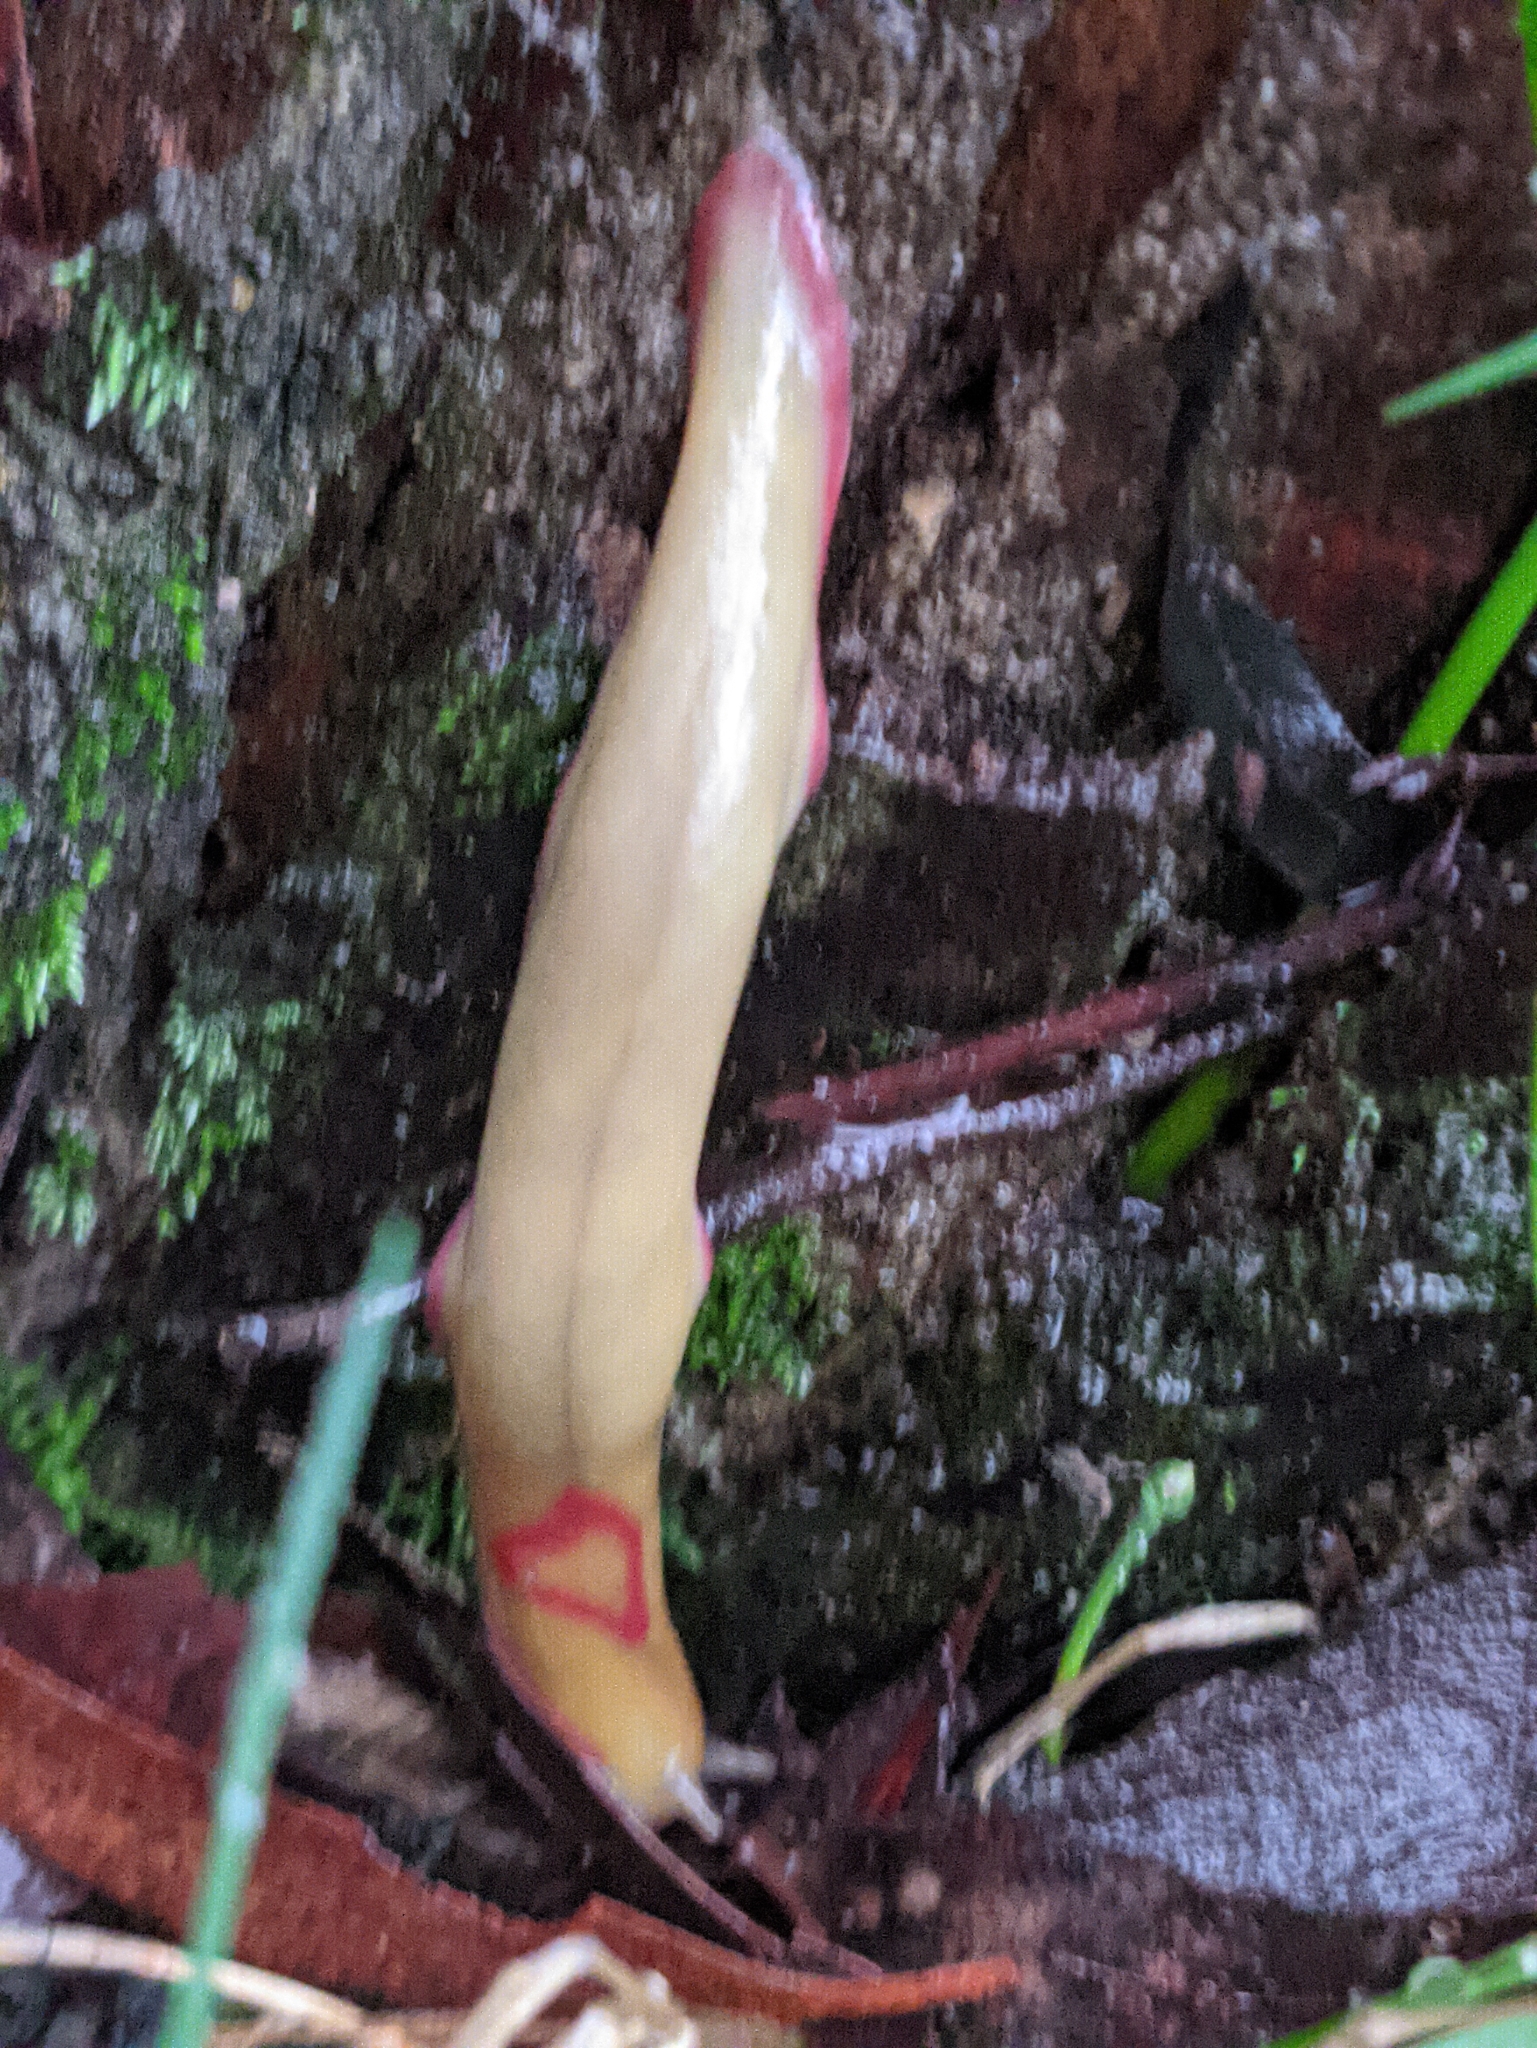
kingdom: Animalia
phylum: Mollusca
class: Gastropoda
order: Stylommatophora
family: Athoracophoridae
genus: Triboniophorus
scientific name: Triboniophorus graeffei
